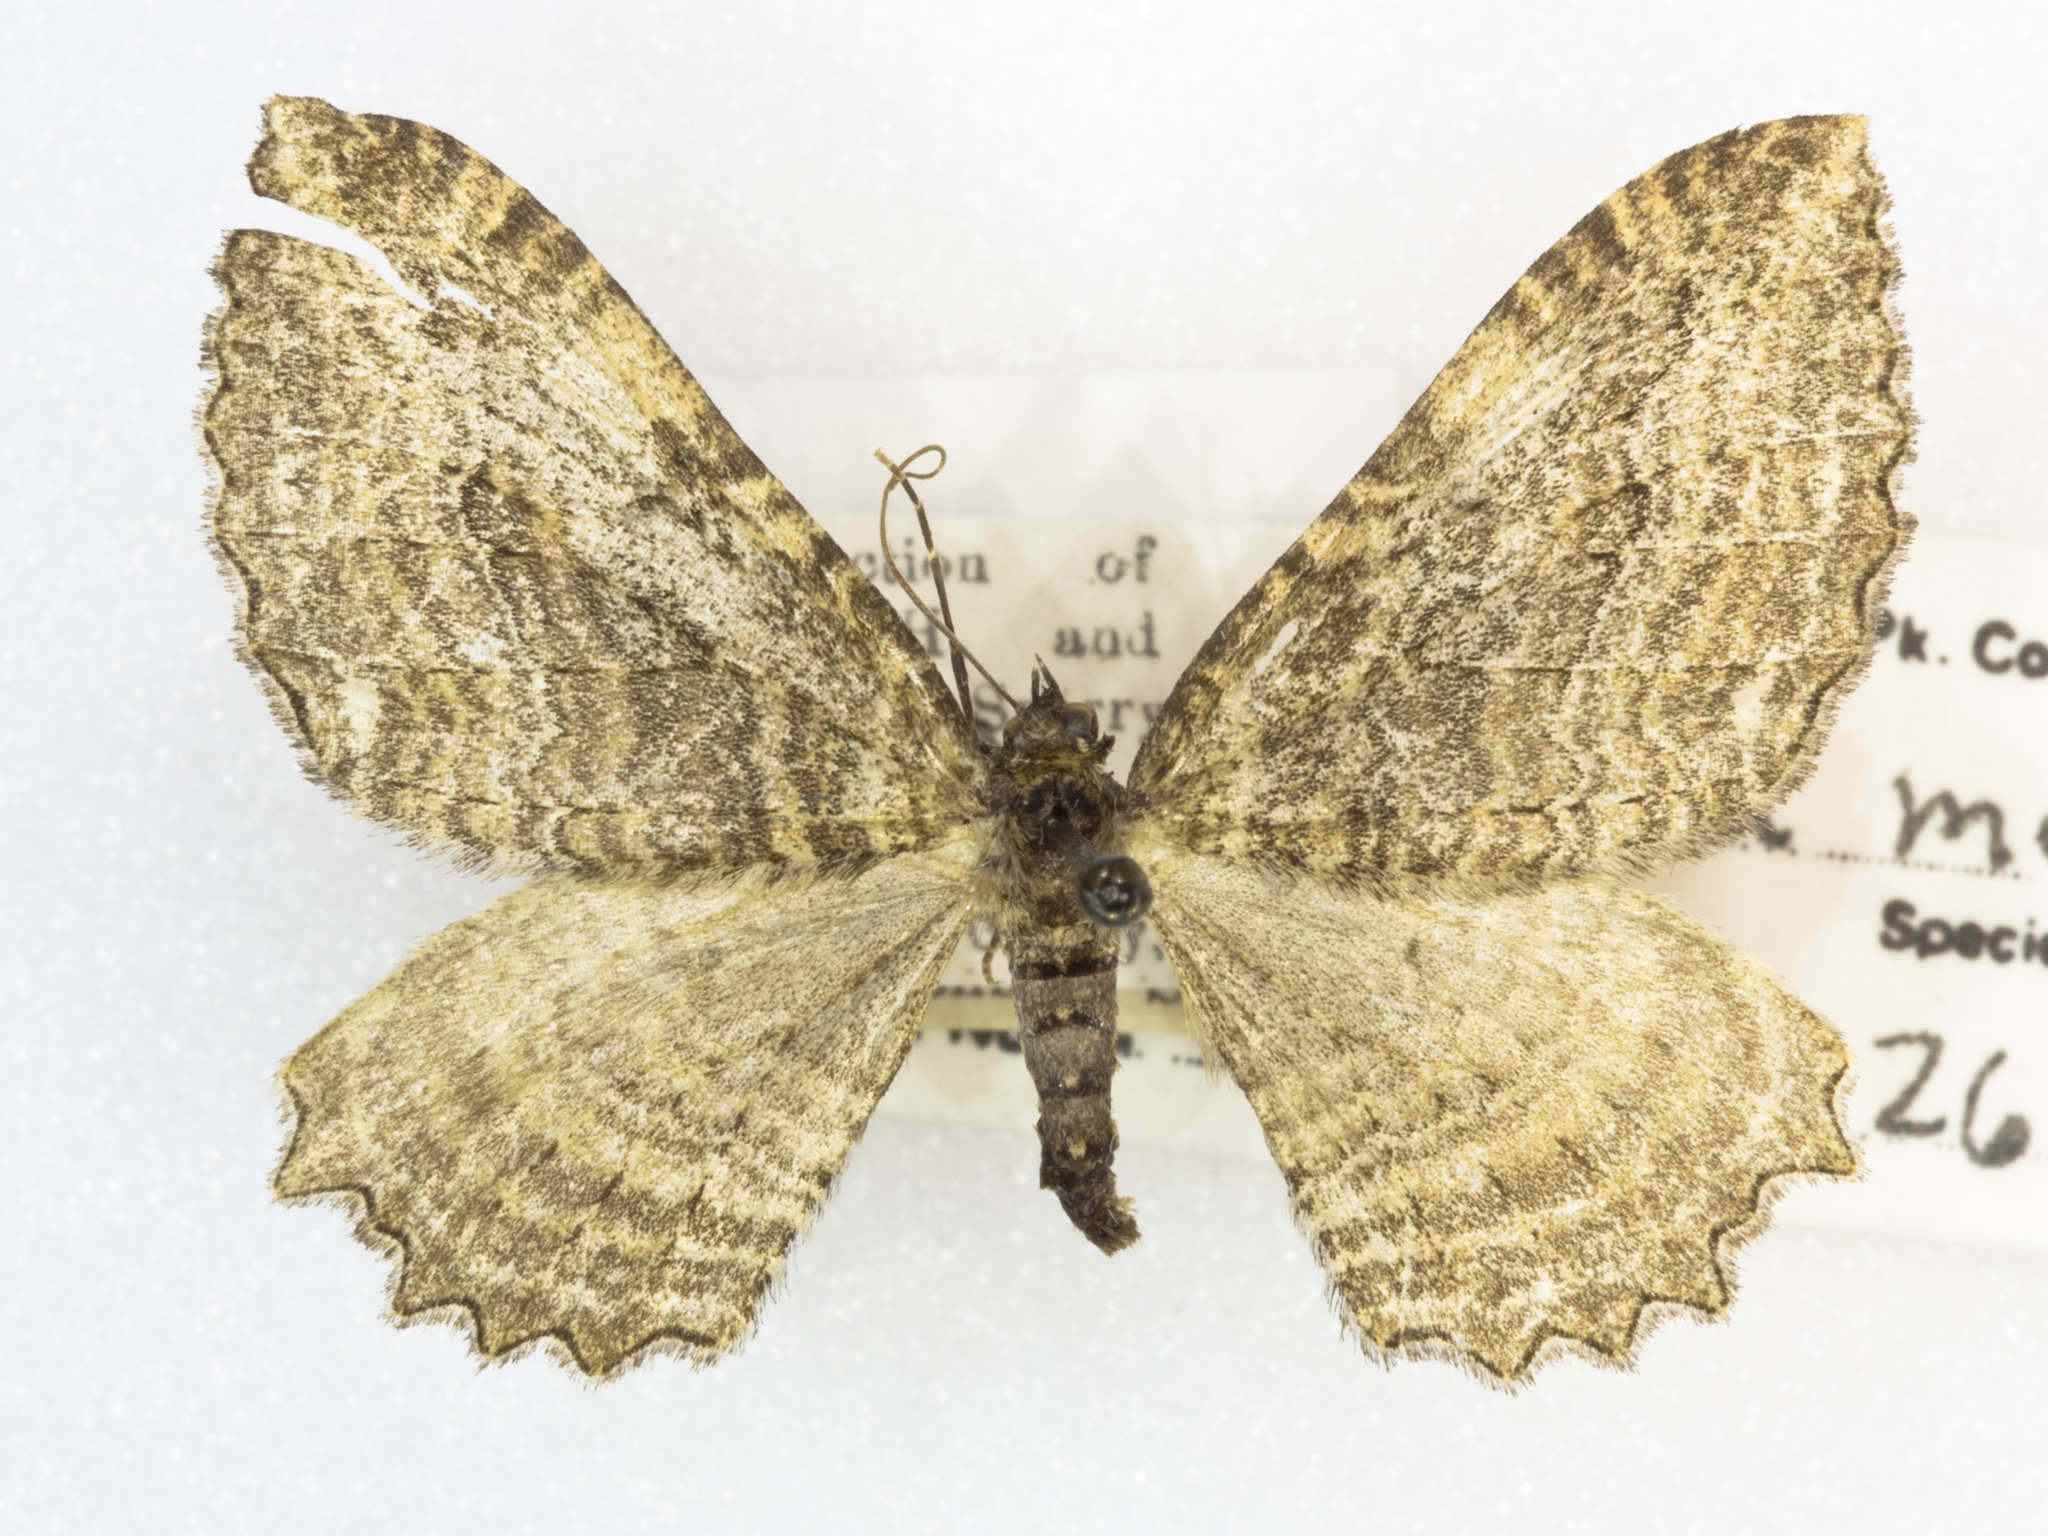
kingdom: Animalia
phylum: Arthropoda
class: Insecta
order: Lepidoptera
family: Geometridae
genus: Rheumaptera
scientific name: Rheumaptera
